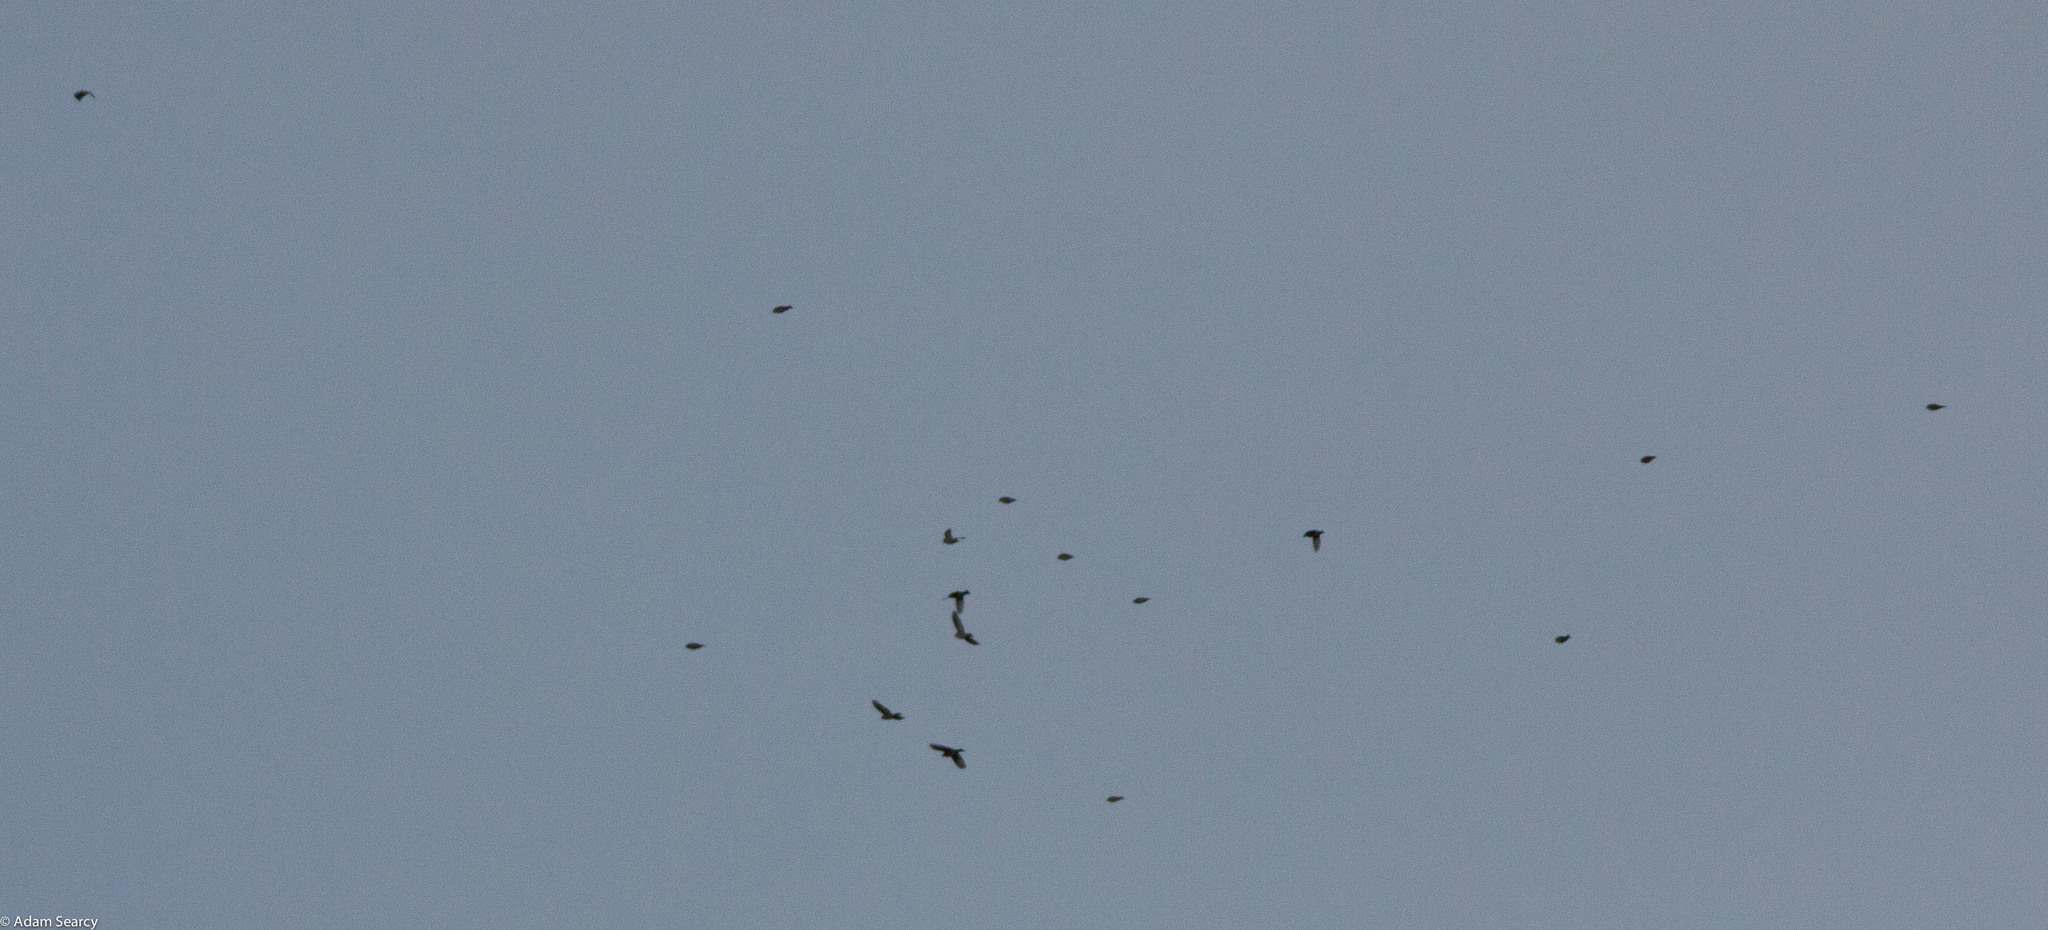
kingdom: Animalia
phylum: Chordata
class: Aves
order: Passeriformes
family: Fringillidae
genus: Loxia
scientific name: Loxia leucoptera
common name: Two-barred crossbill
